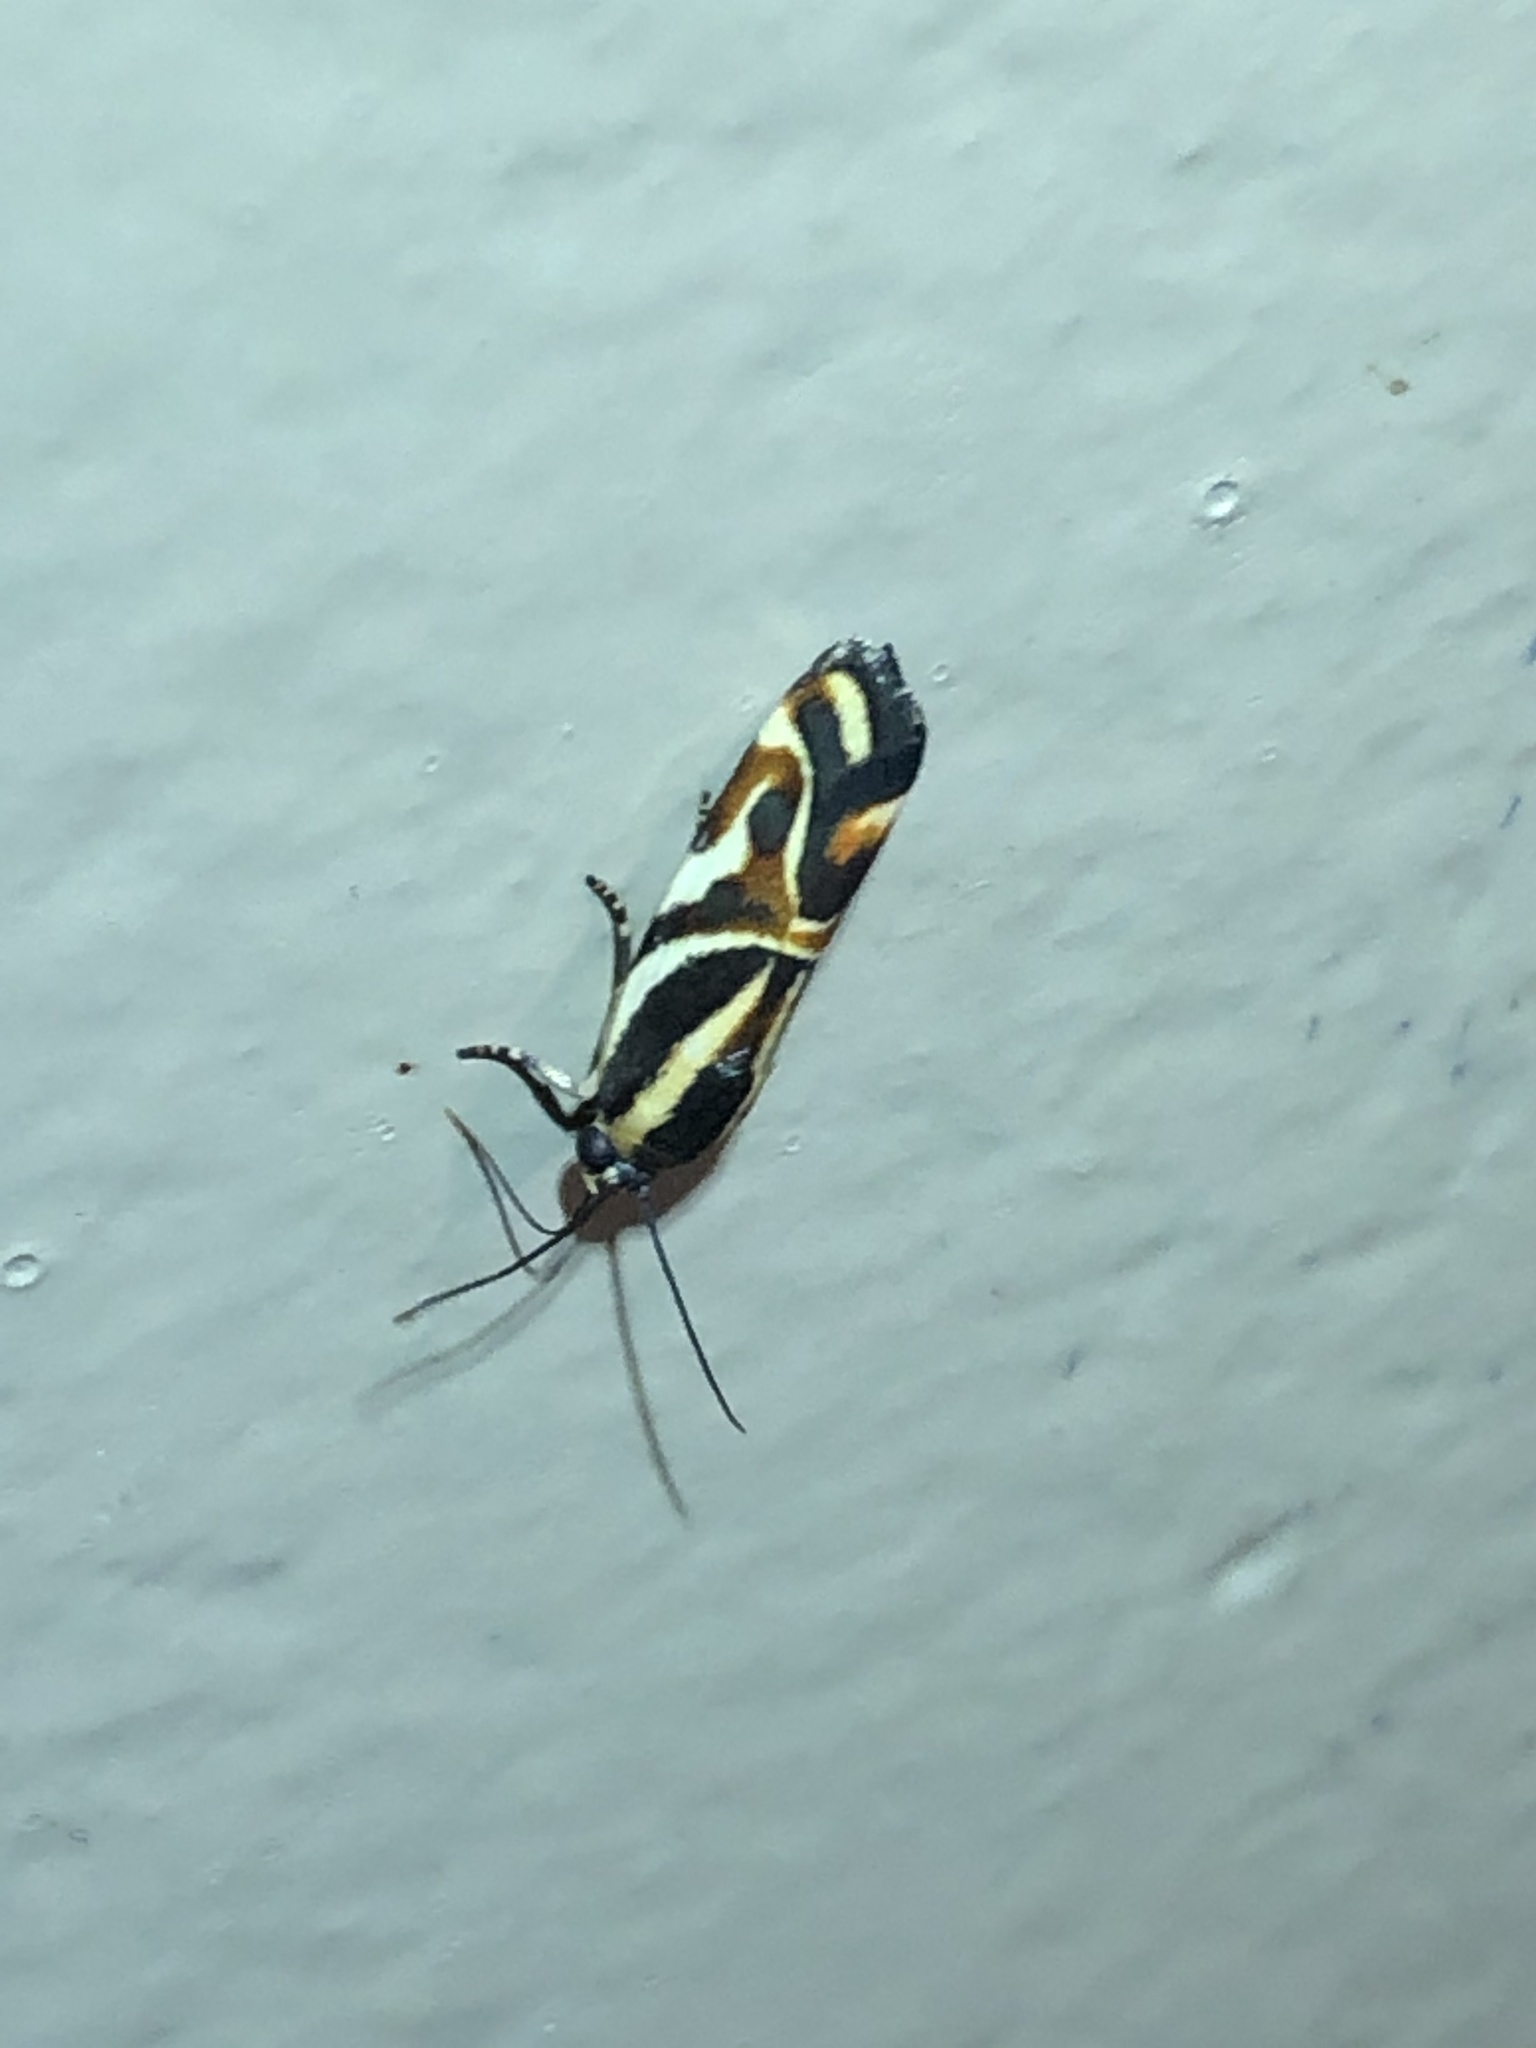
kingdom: Animalia
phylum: Arthropoda
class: Insecta
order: Lepidoptera
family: Noctuidae
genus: Spragueia
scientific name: Spragueia magnifica
